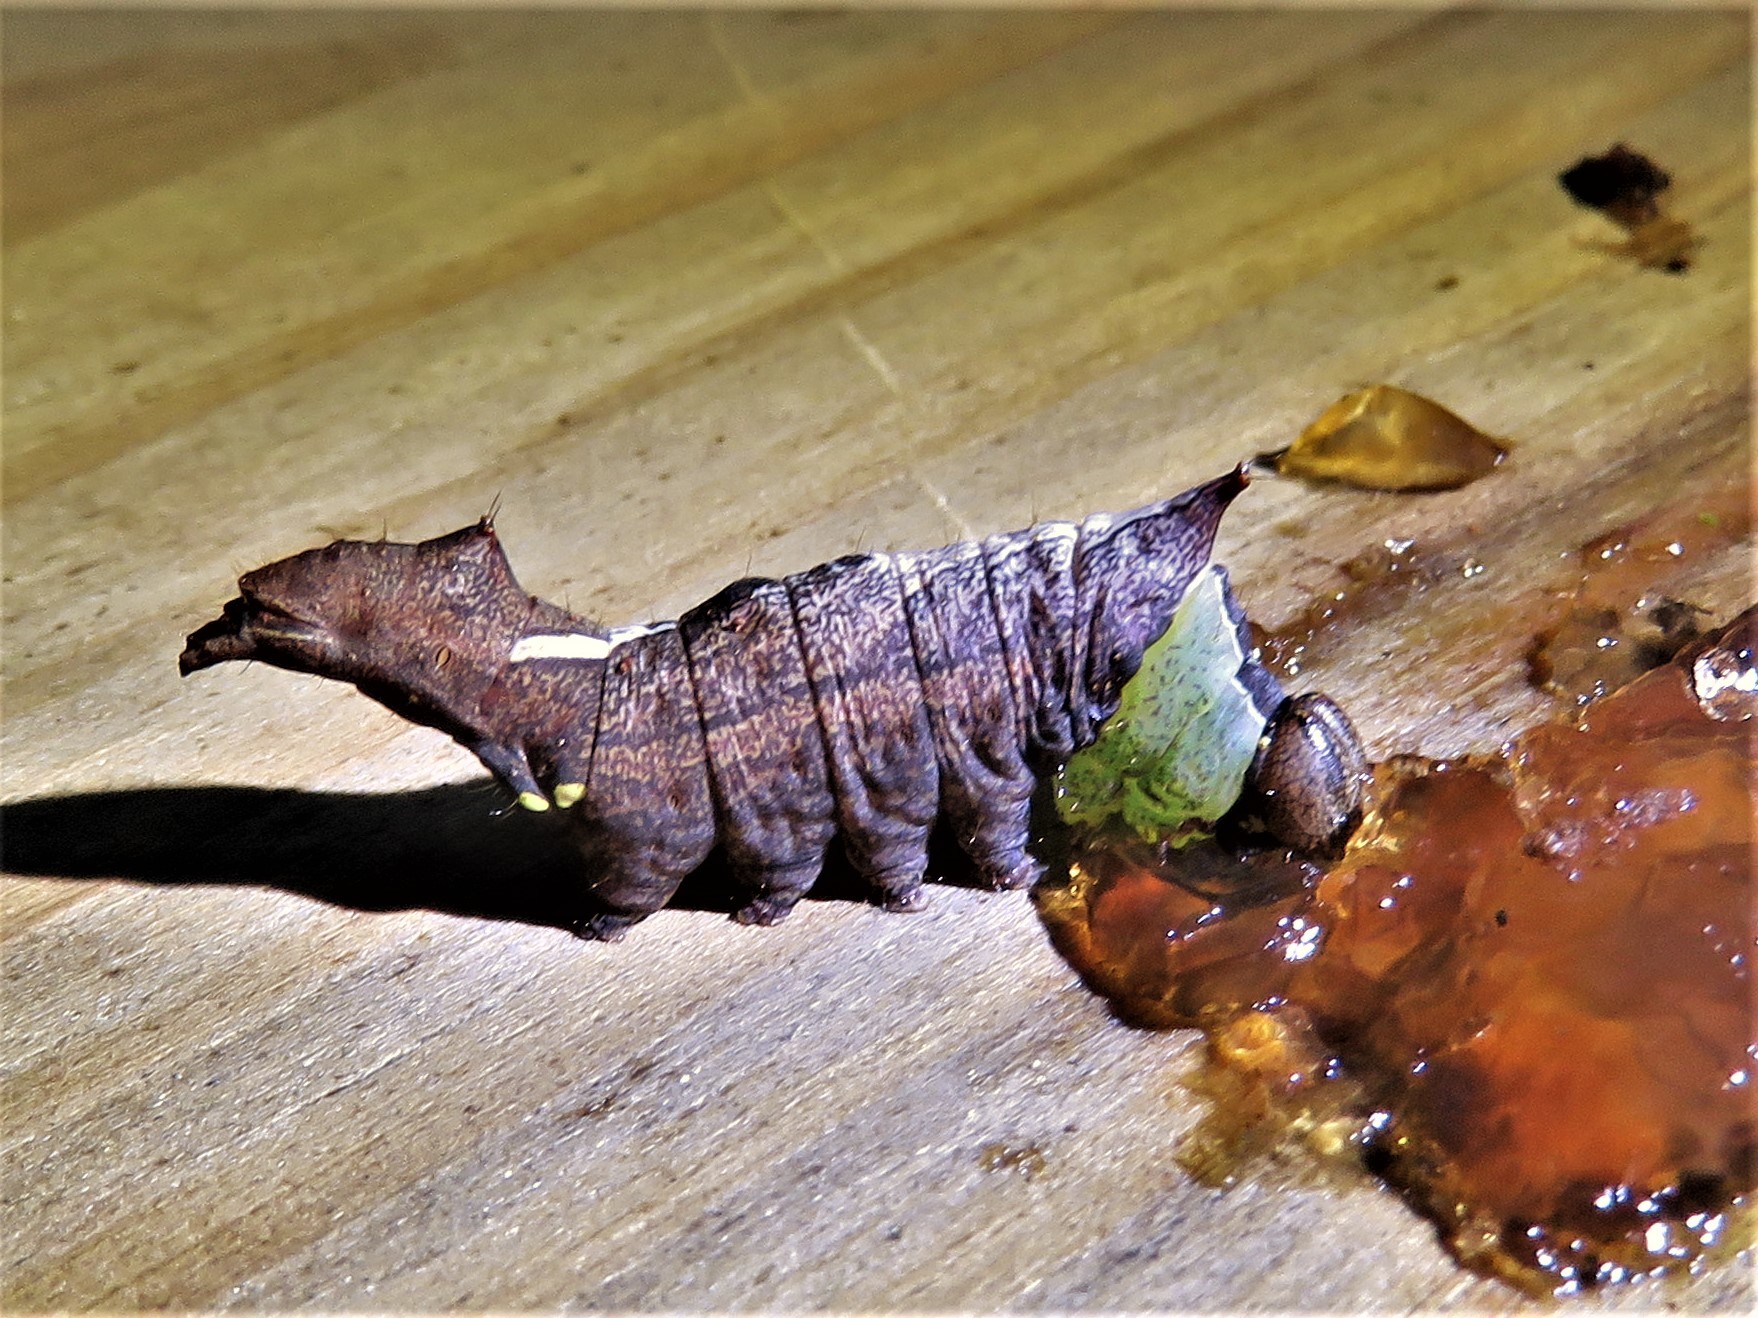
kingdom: Animalia
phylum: Arthropoda
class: Insecta
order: Lepidoptera
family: Notodontidae
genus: Schizura
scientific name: Schizura
